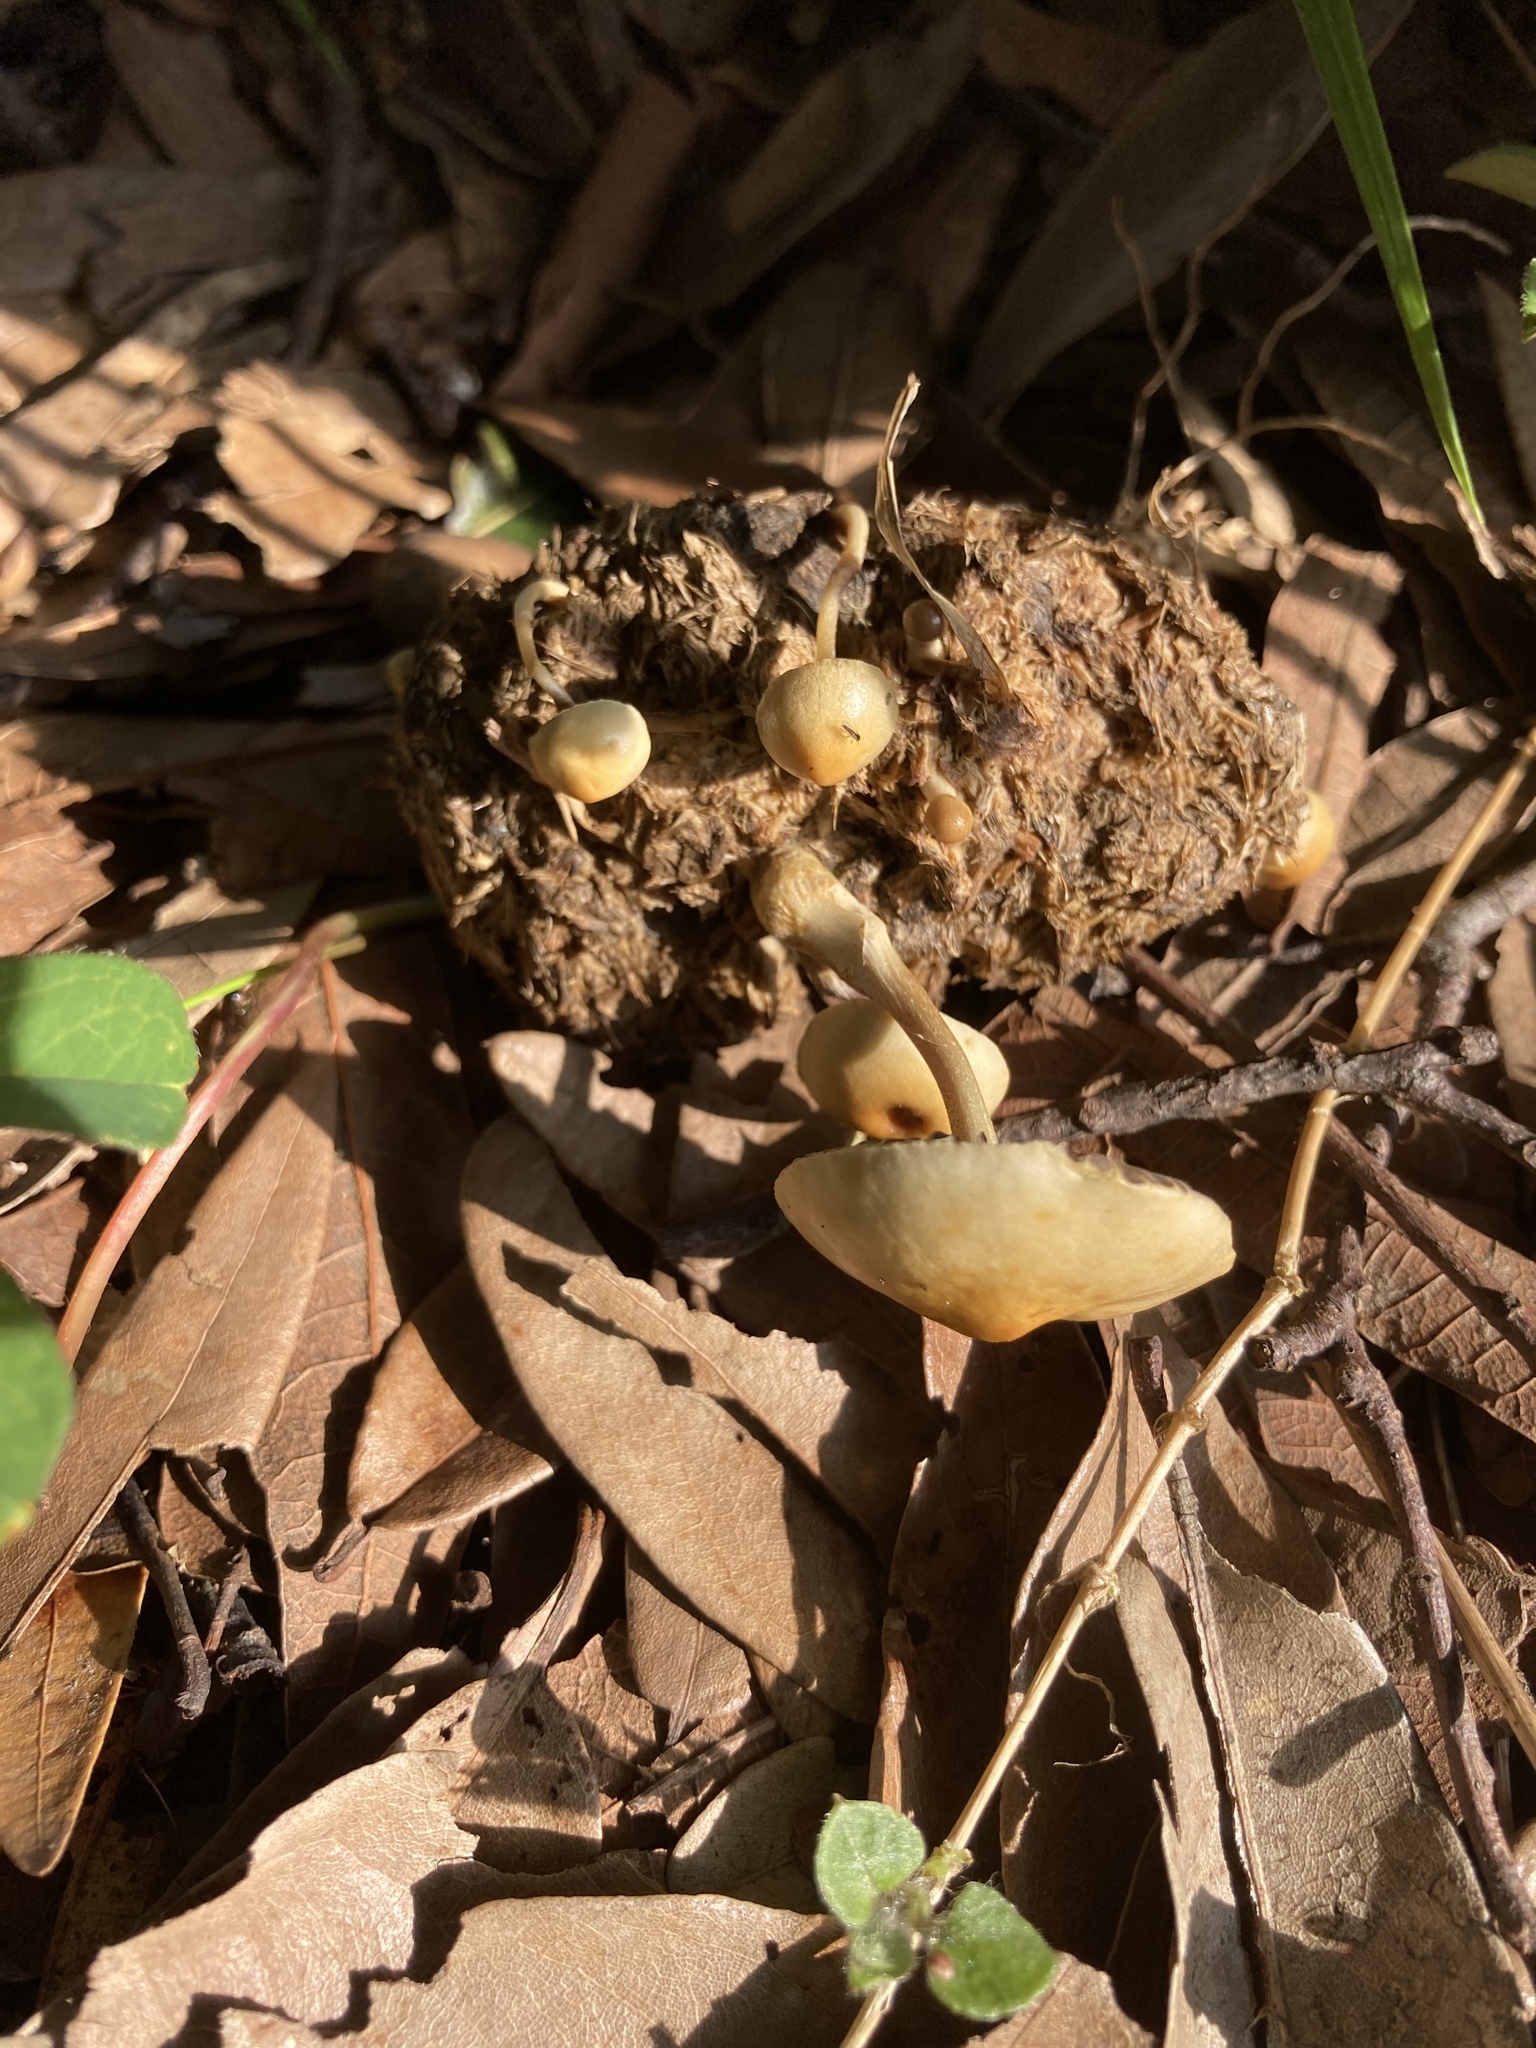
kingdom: Fungi
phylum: Basidiomycota
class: Agaricomycetes
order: Agaricales
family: Strophariaceae
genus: Protostropharia
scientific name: Protostropharia semiglobata
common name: Dung roundhead
